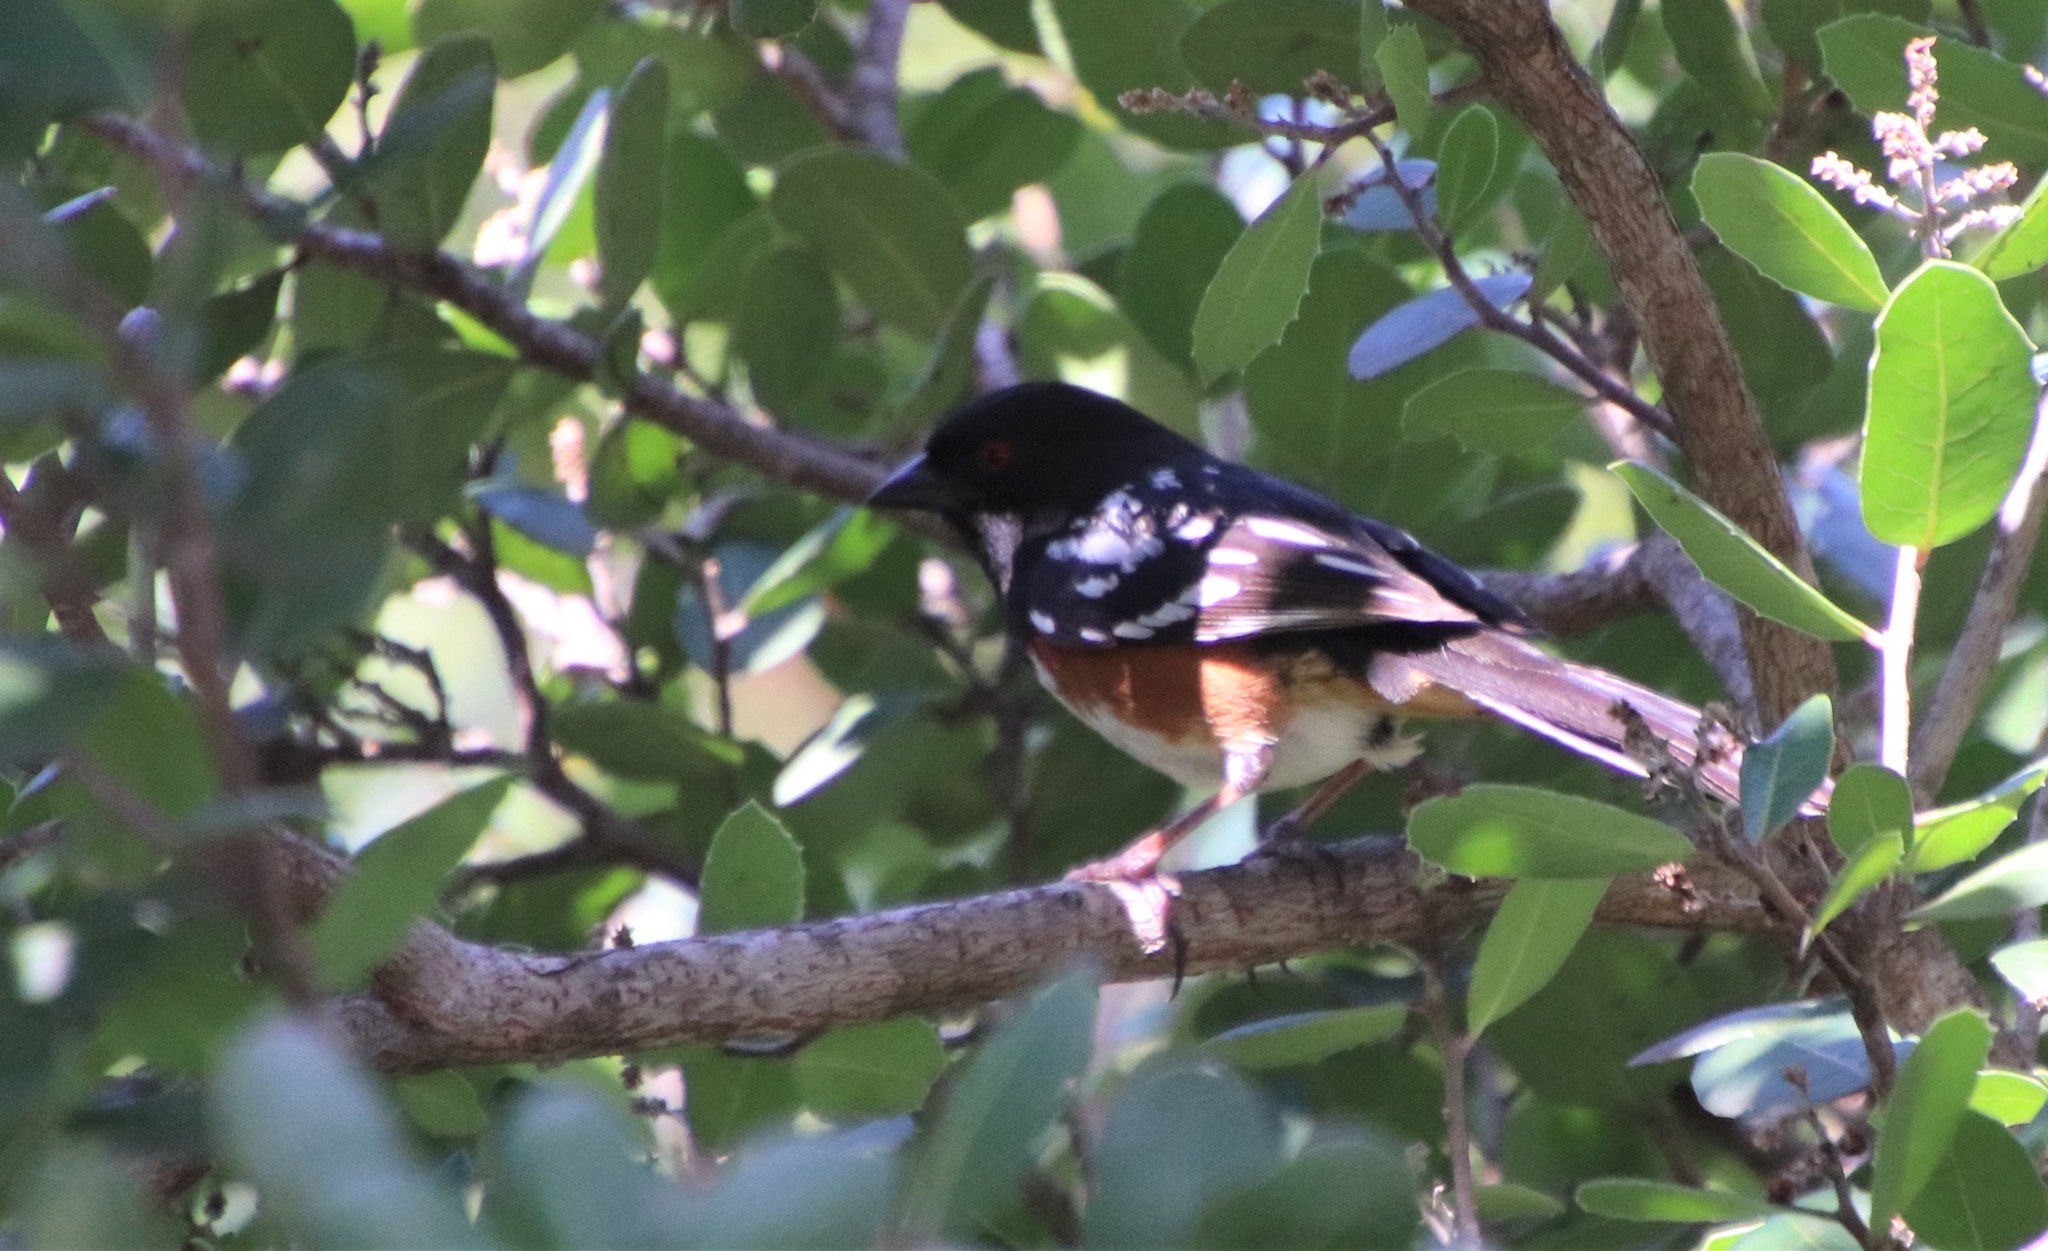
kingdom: Animalia
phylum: Chordata
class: Aves
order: Passeriformes
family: Passerellidae
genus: Pipilo
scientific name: Pipilo maculatus
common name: Spotted towhee
